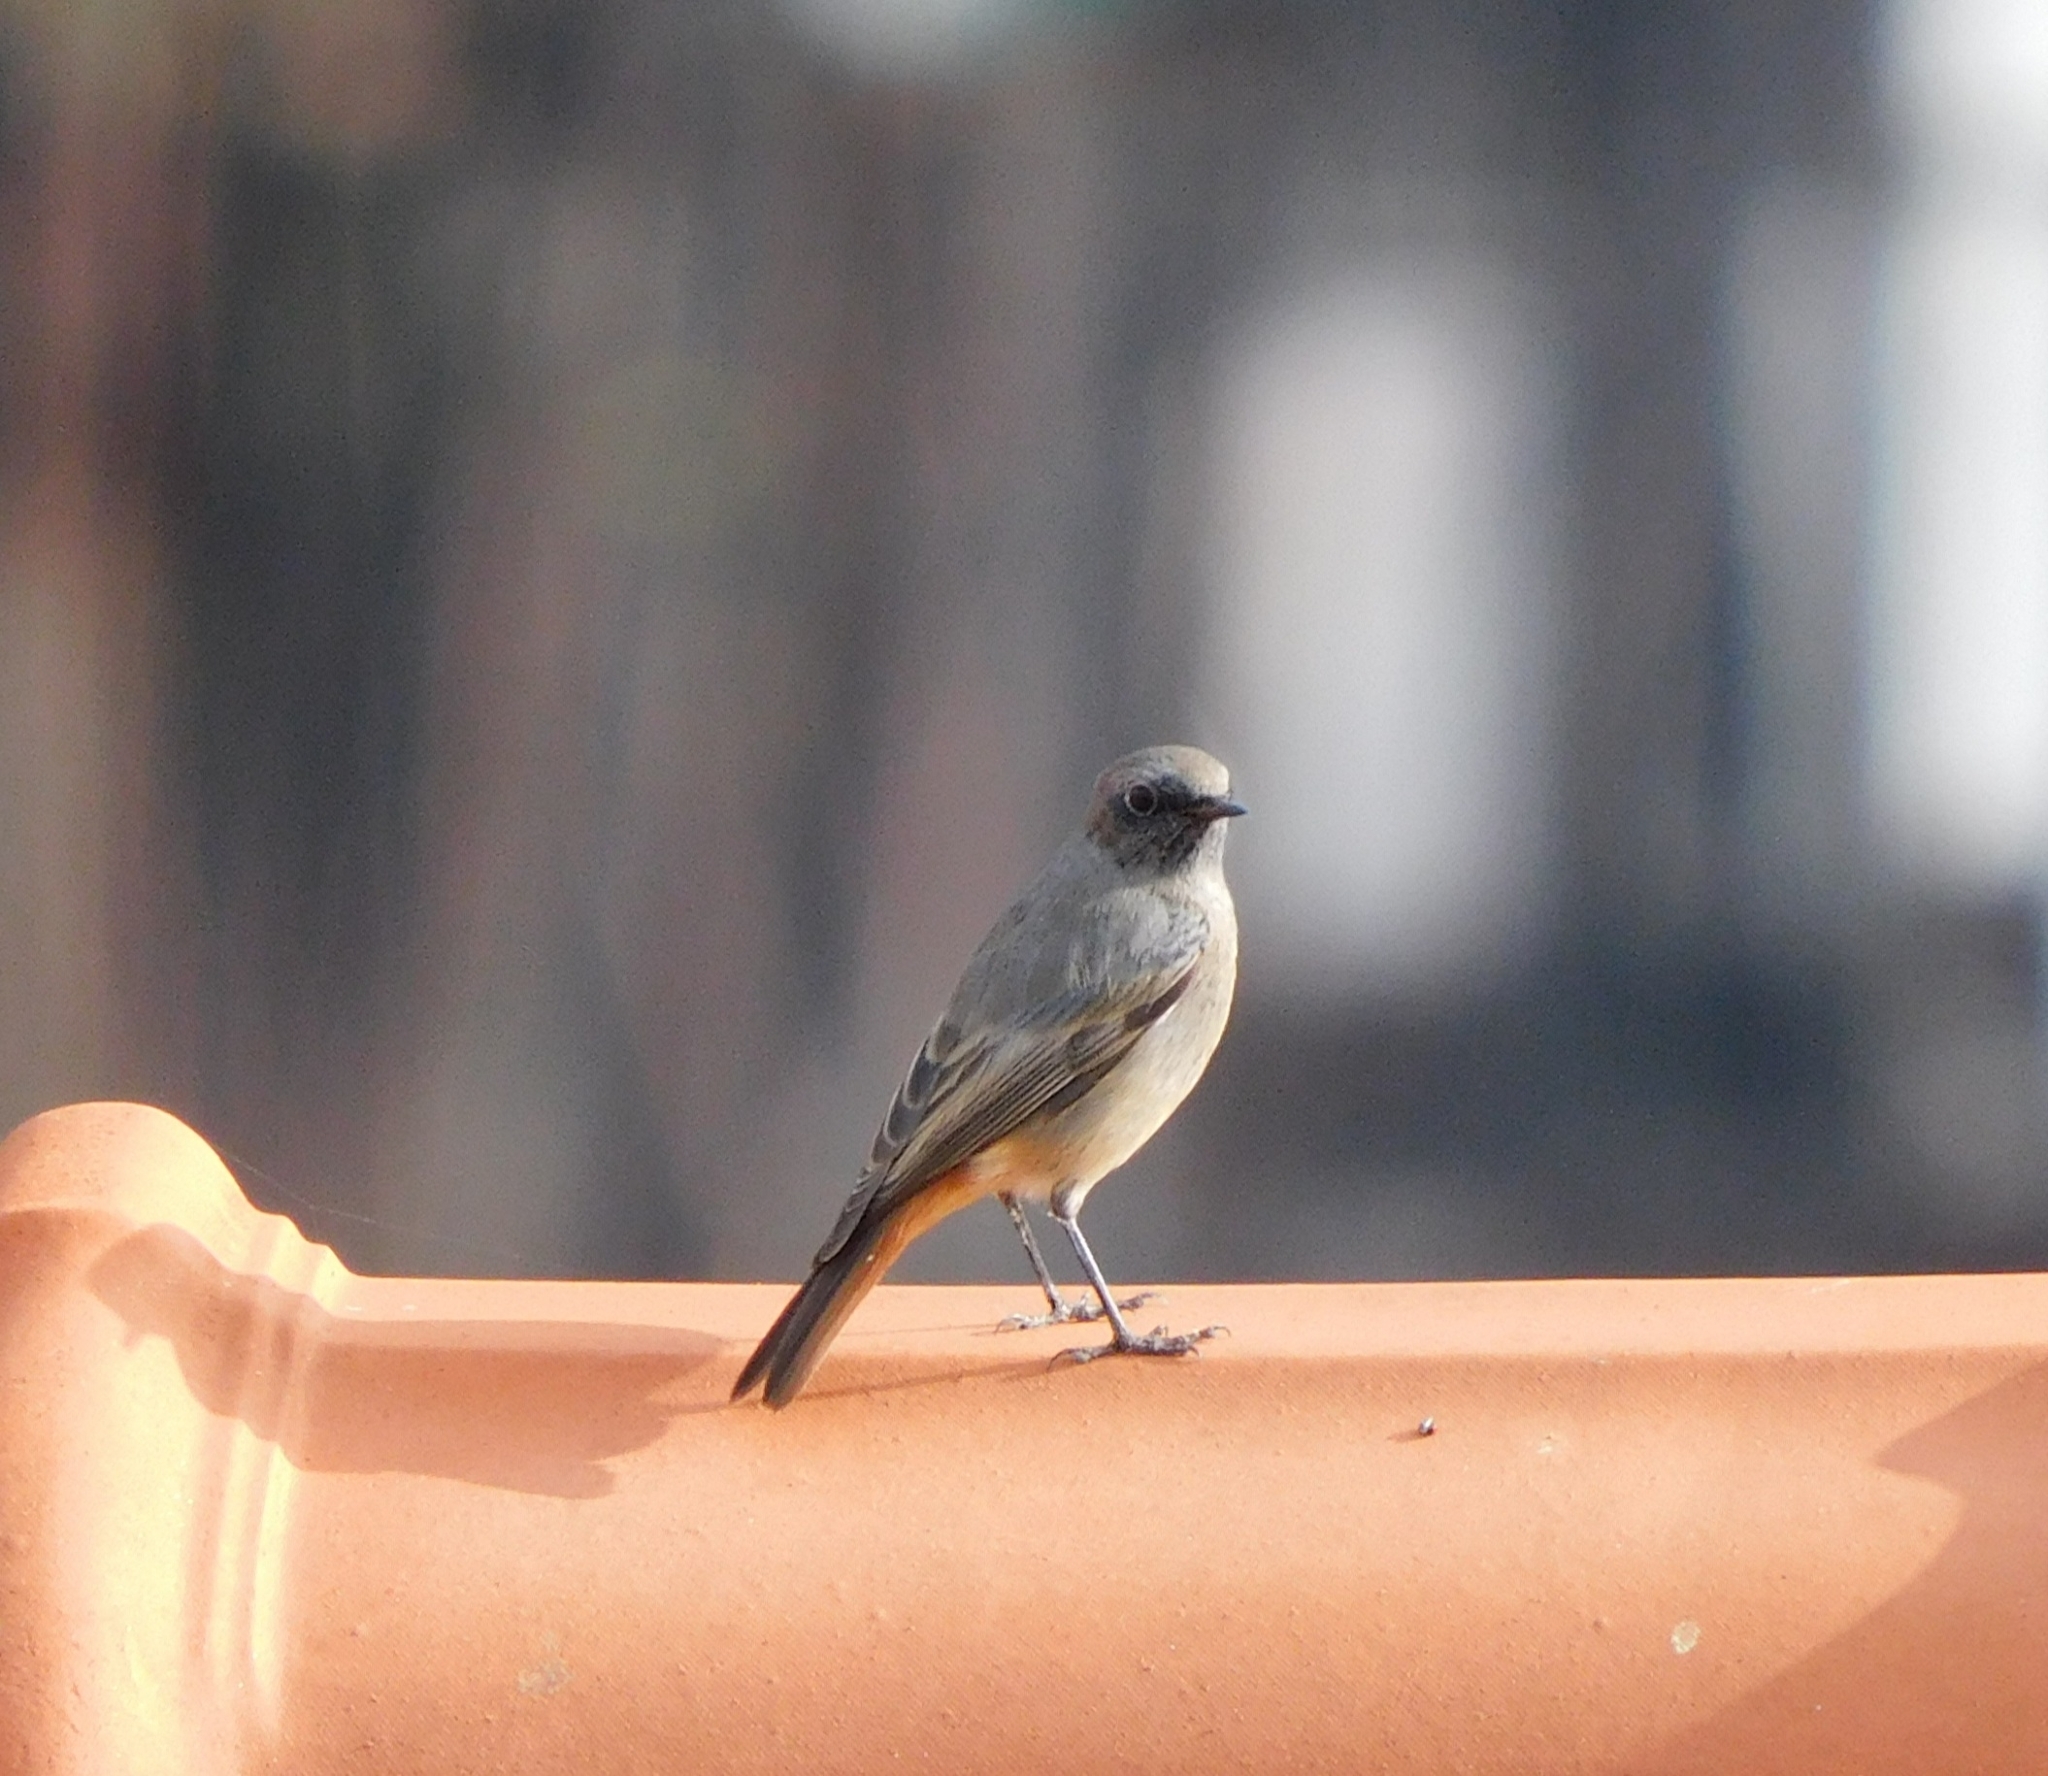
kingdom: Animalia
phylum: Chordata
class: Aves
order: Passeriformes
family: Muscicapidae
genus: Phoenicurus
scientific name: Phoenicurus ochruros
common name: Black redstart
